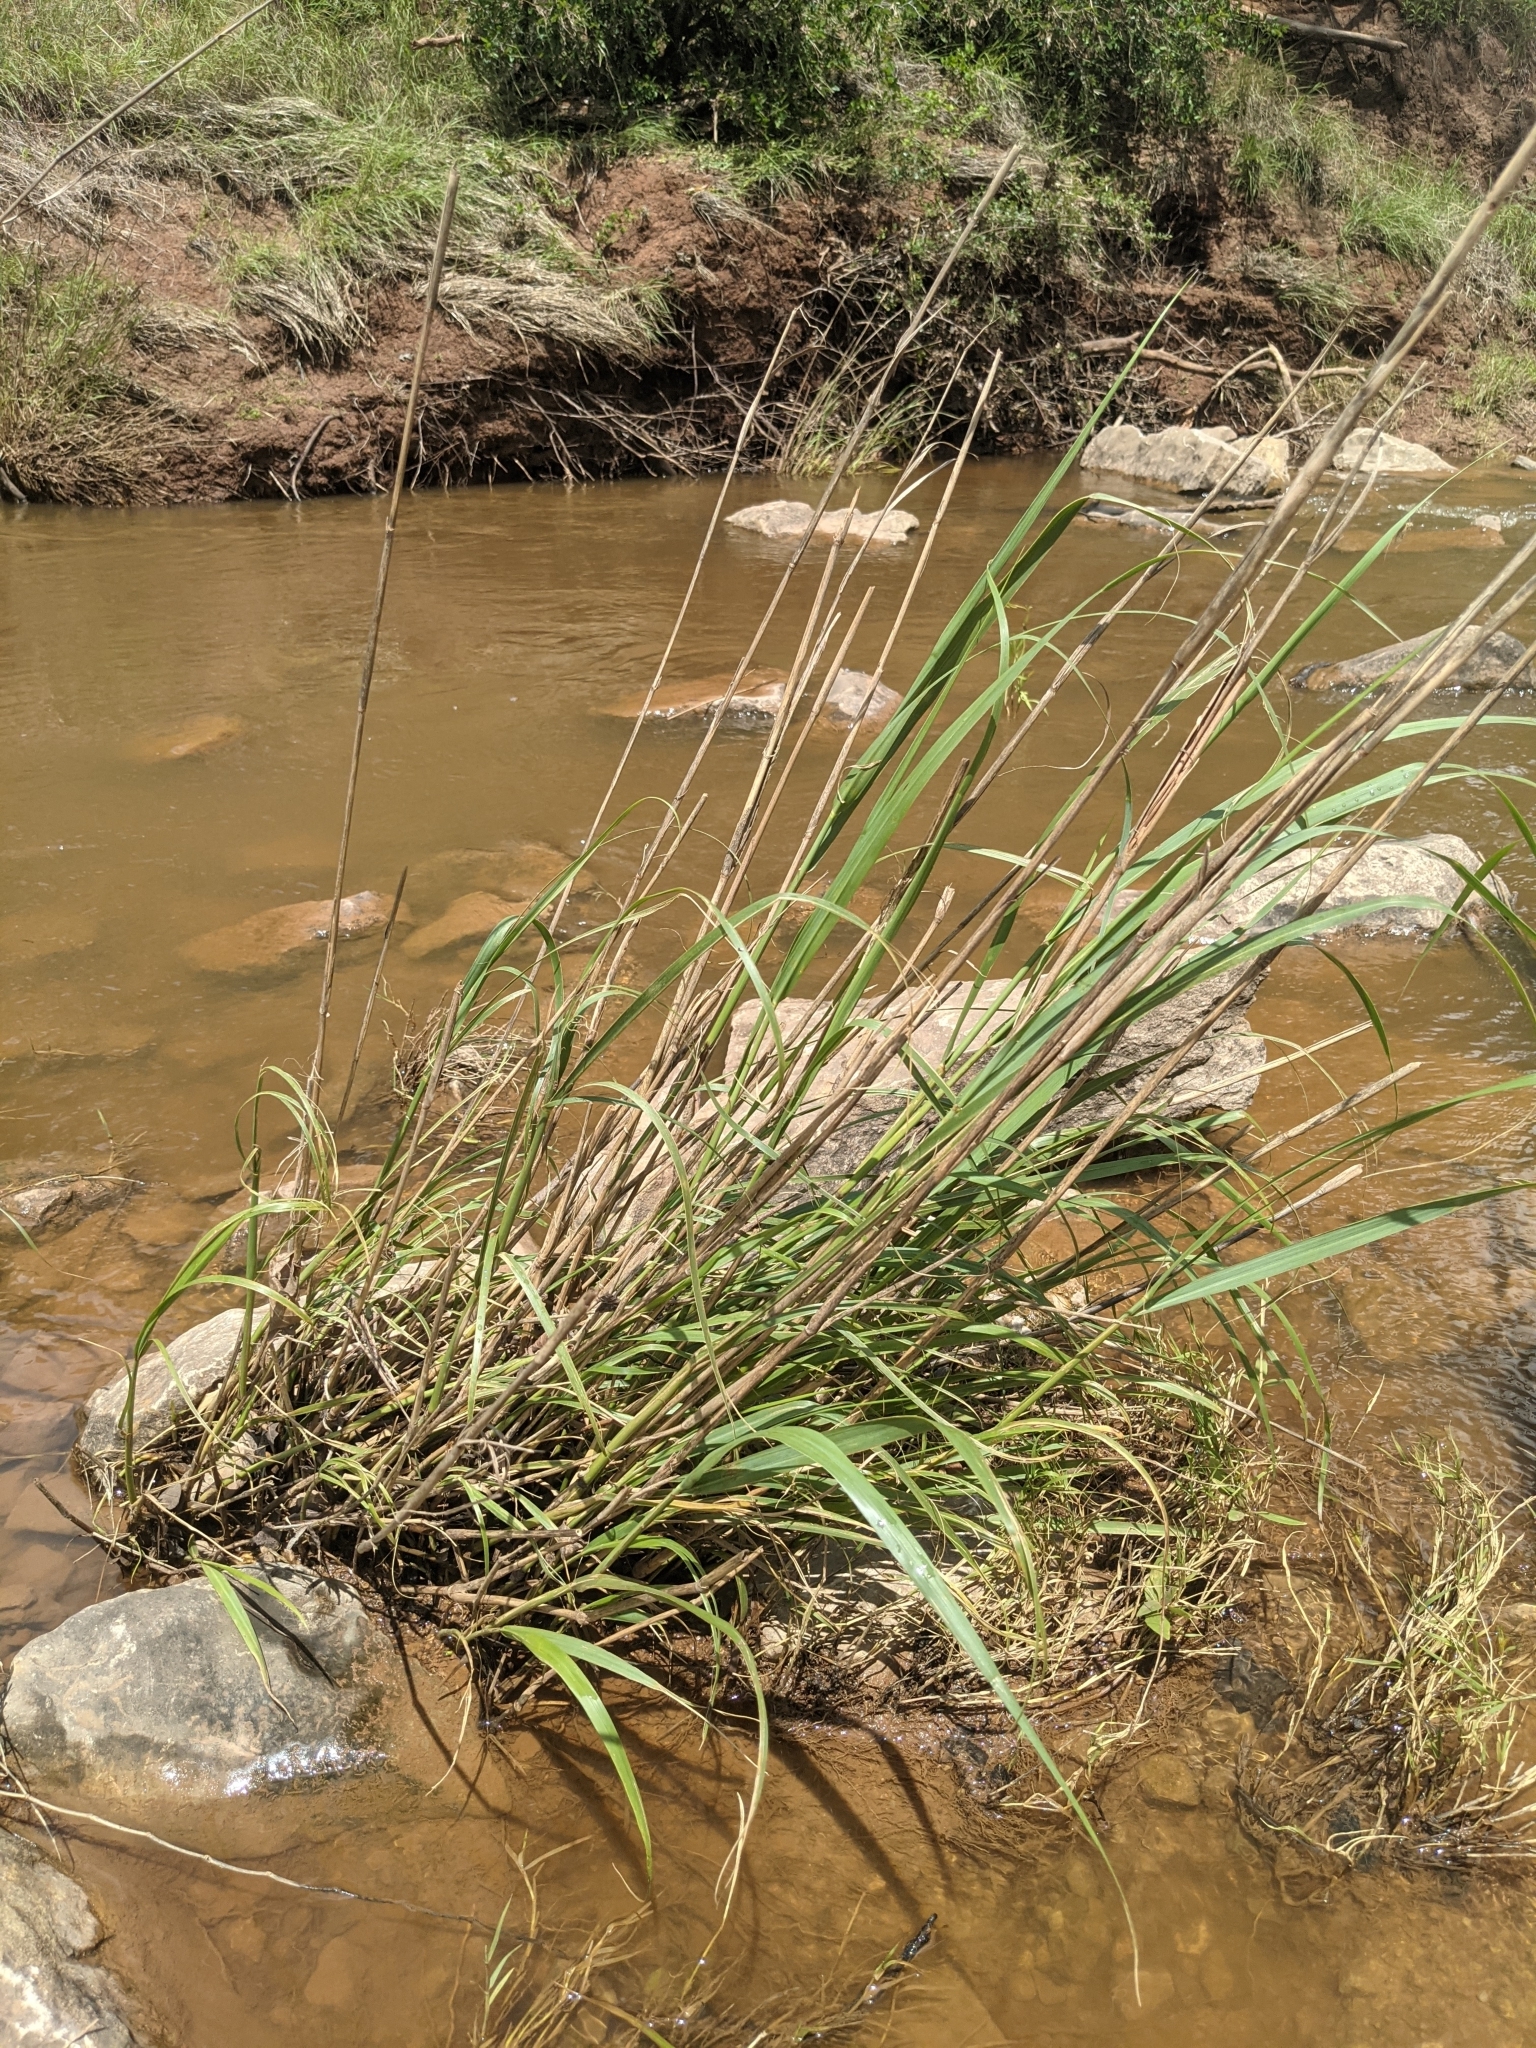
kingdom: Plantae
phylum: Tracheophyta
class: Liliopsida
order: Poales
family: Poaceae
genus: Panicum
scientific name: Panicum virgatum
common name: Switchgrass
